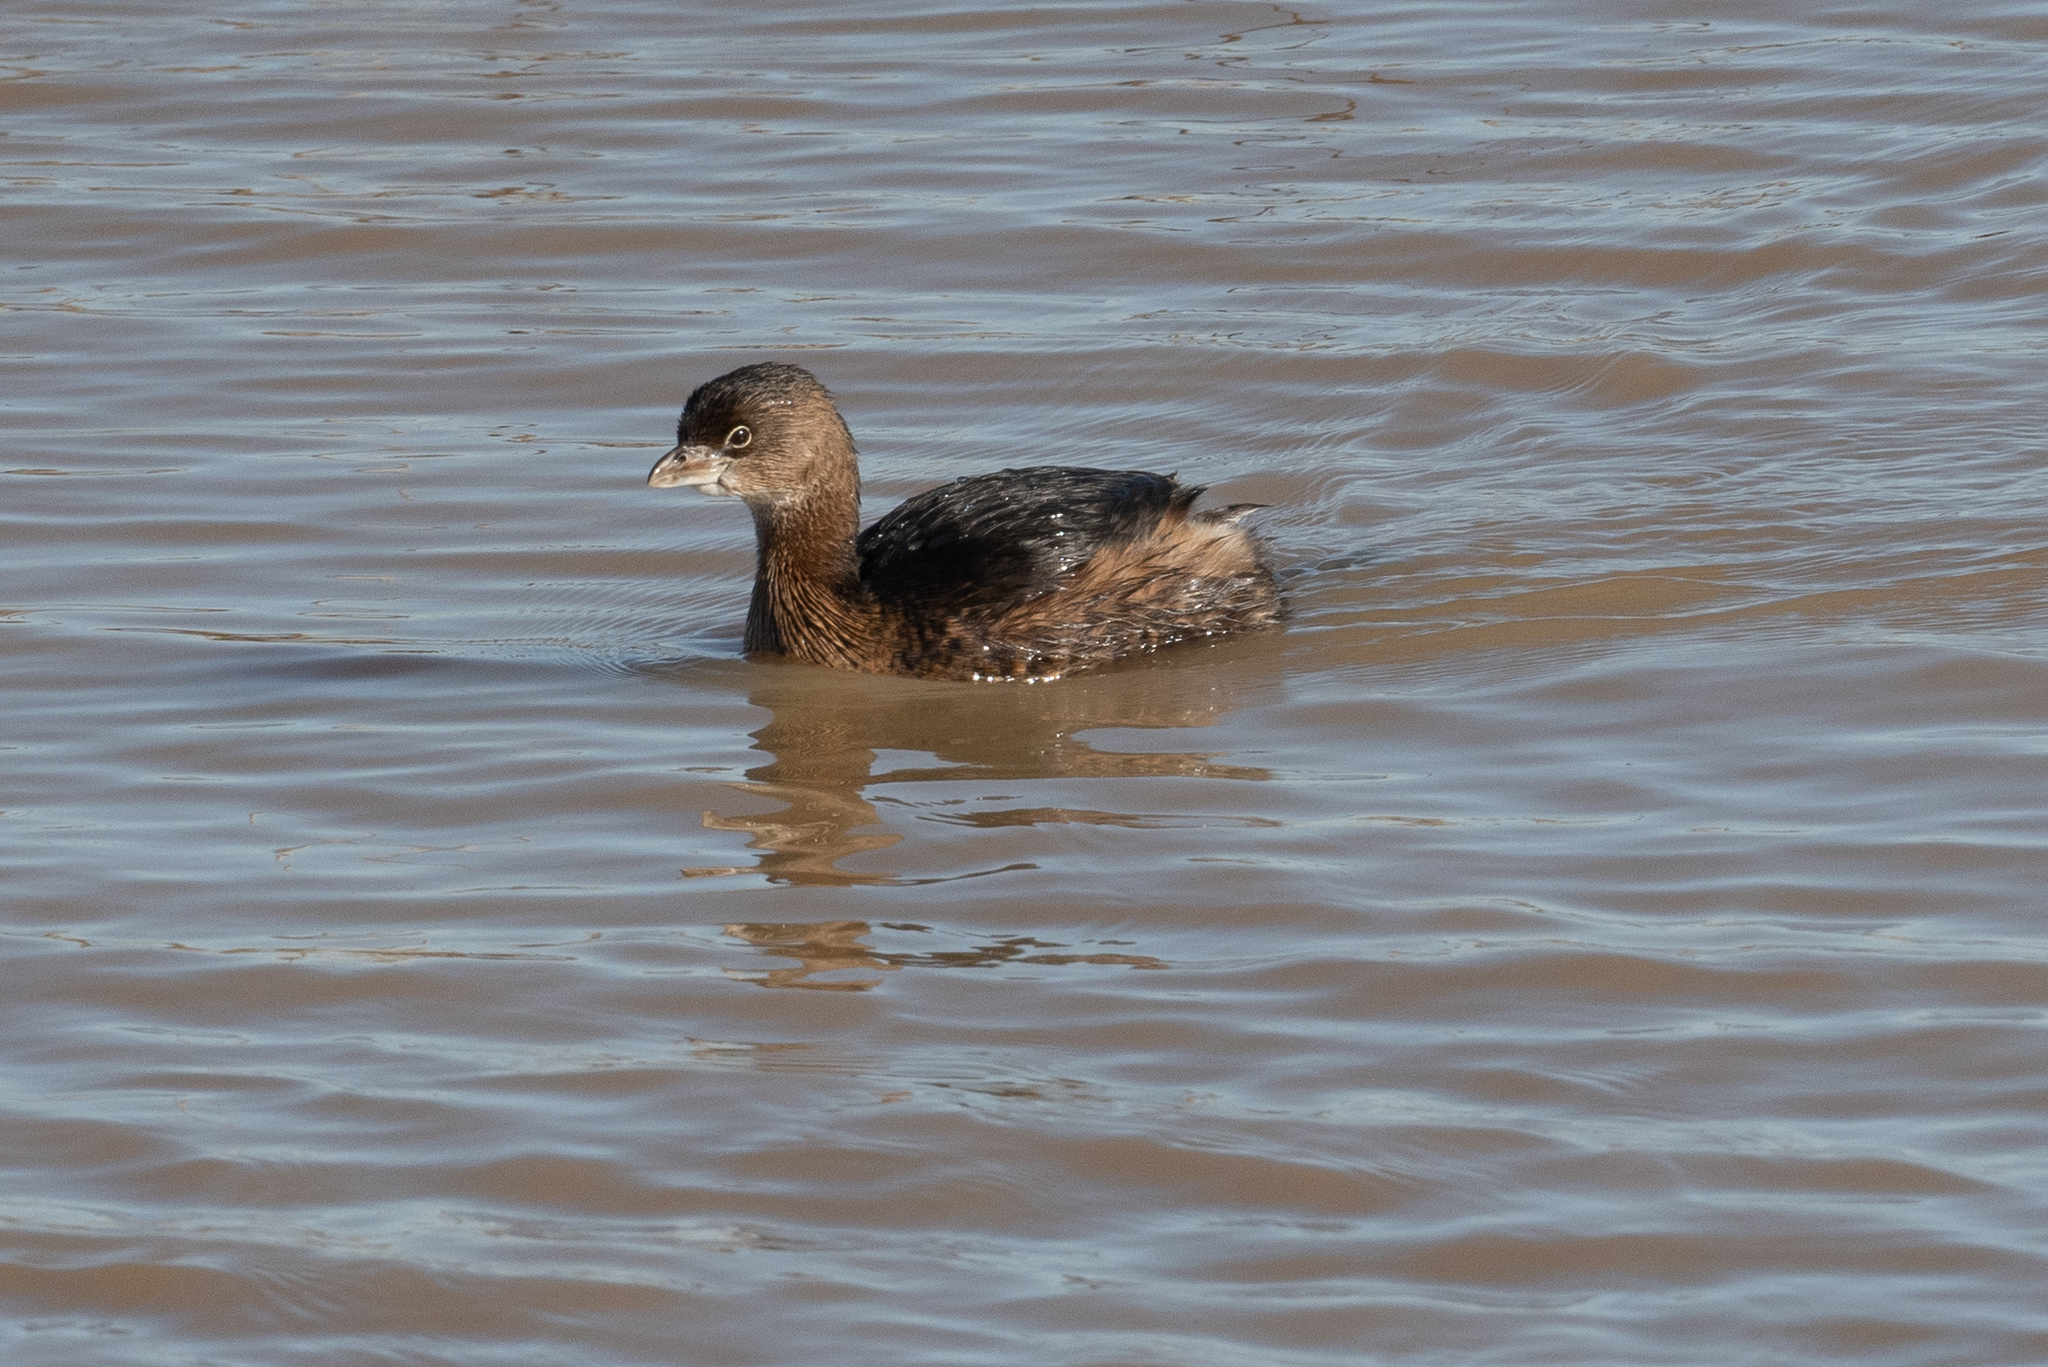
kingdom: Animalia
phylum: Chordata
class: Aves
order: Podicipediformes
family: Podicipedidae
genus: Podilymbus
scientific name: Podilymbus podiceps
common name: Pied-billed grebe
